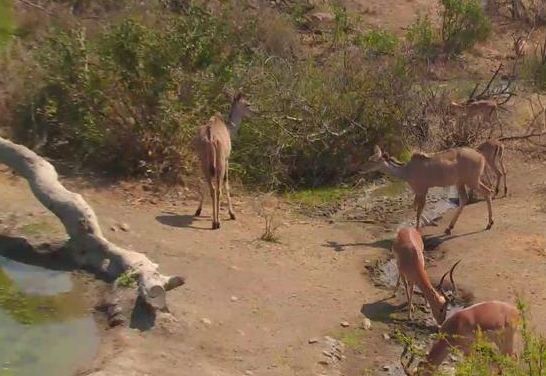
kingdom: Animalia
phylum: Chordata
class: Mammalia
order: Artiodactyla
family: Bovidae
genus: Aepyceros
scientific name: Aepyceros melampus
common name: Impala
